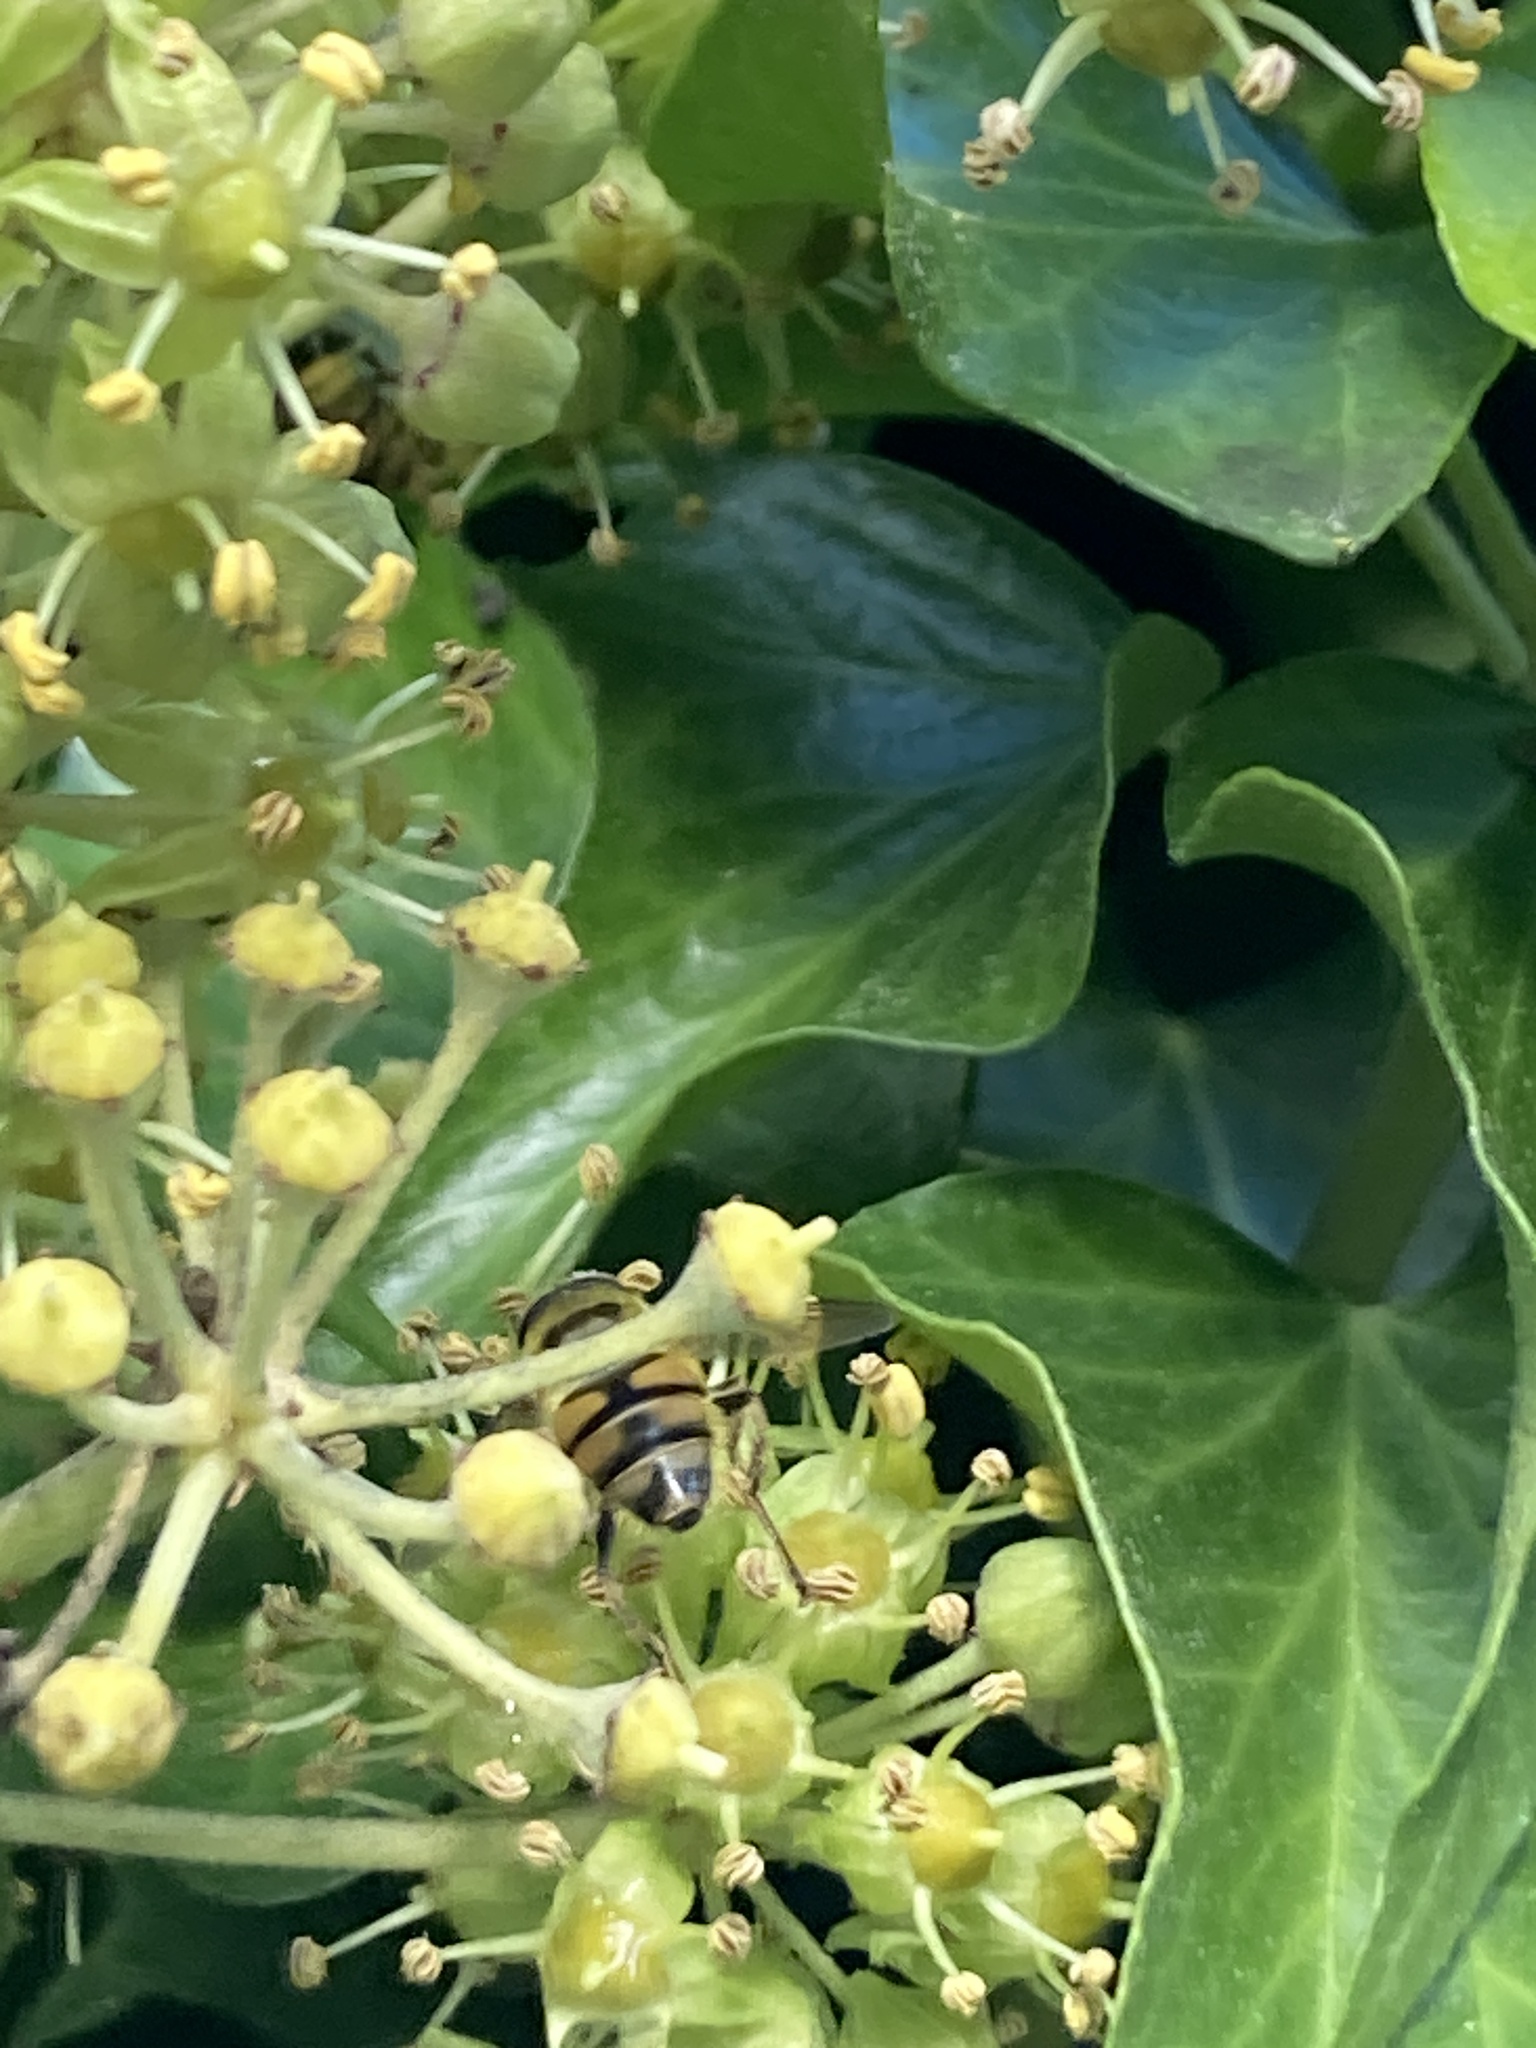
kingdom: Animalia
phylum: Arthropoda
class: Insecta
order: Diptera
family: Syrphidae
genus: Myathropa
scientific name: Myathropa florea
